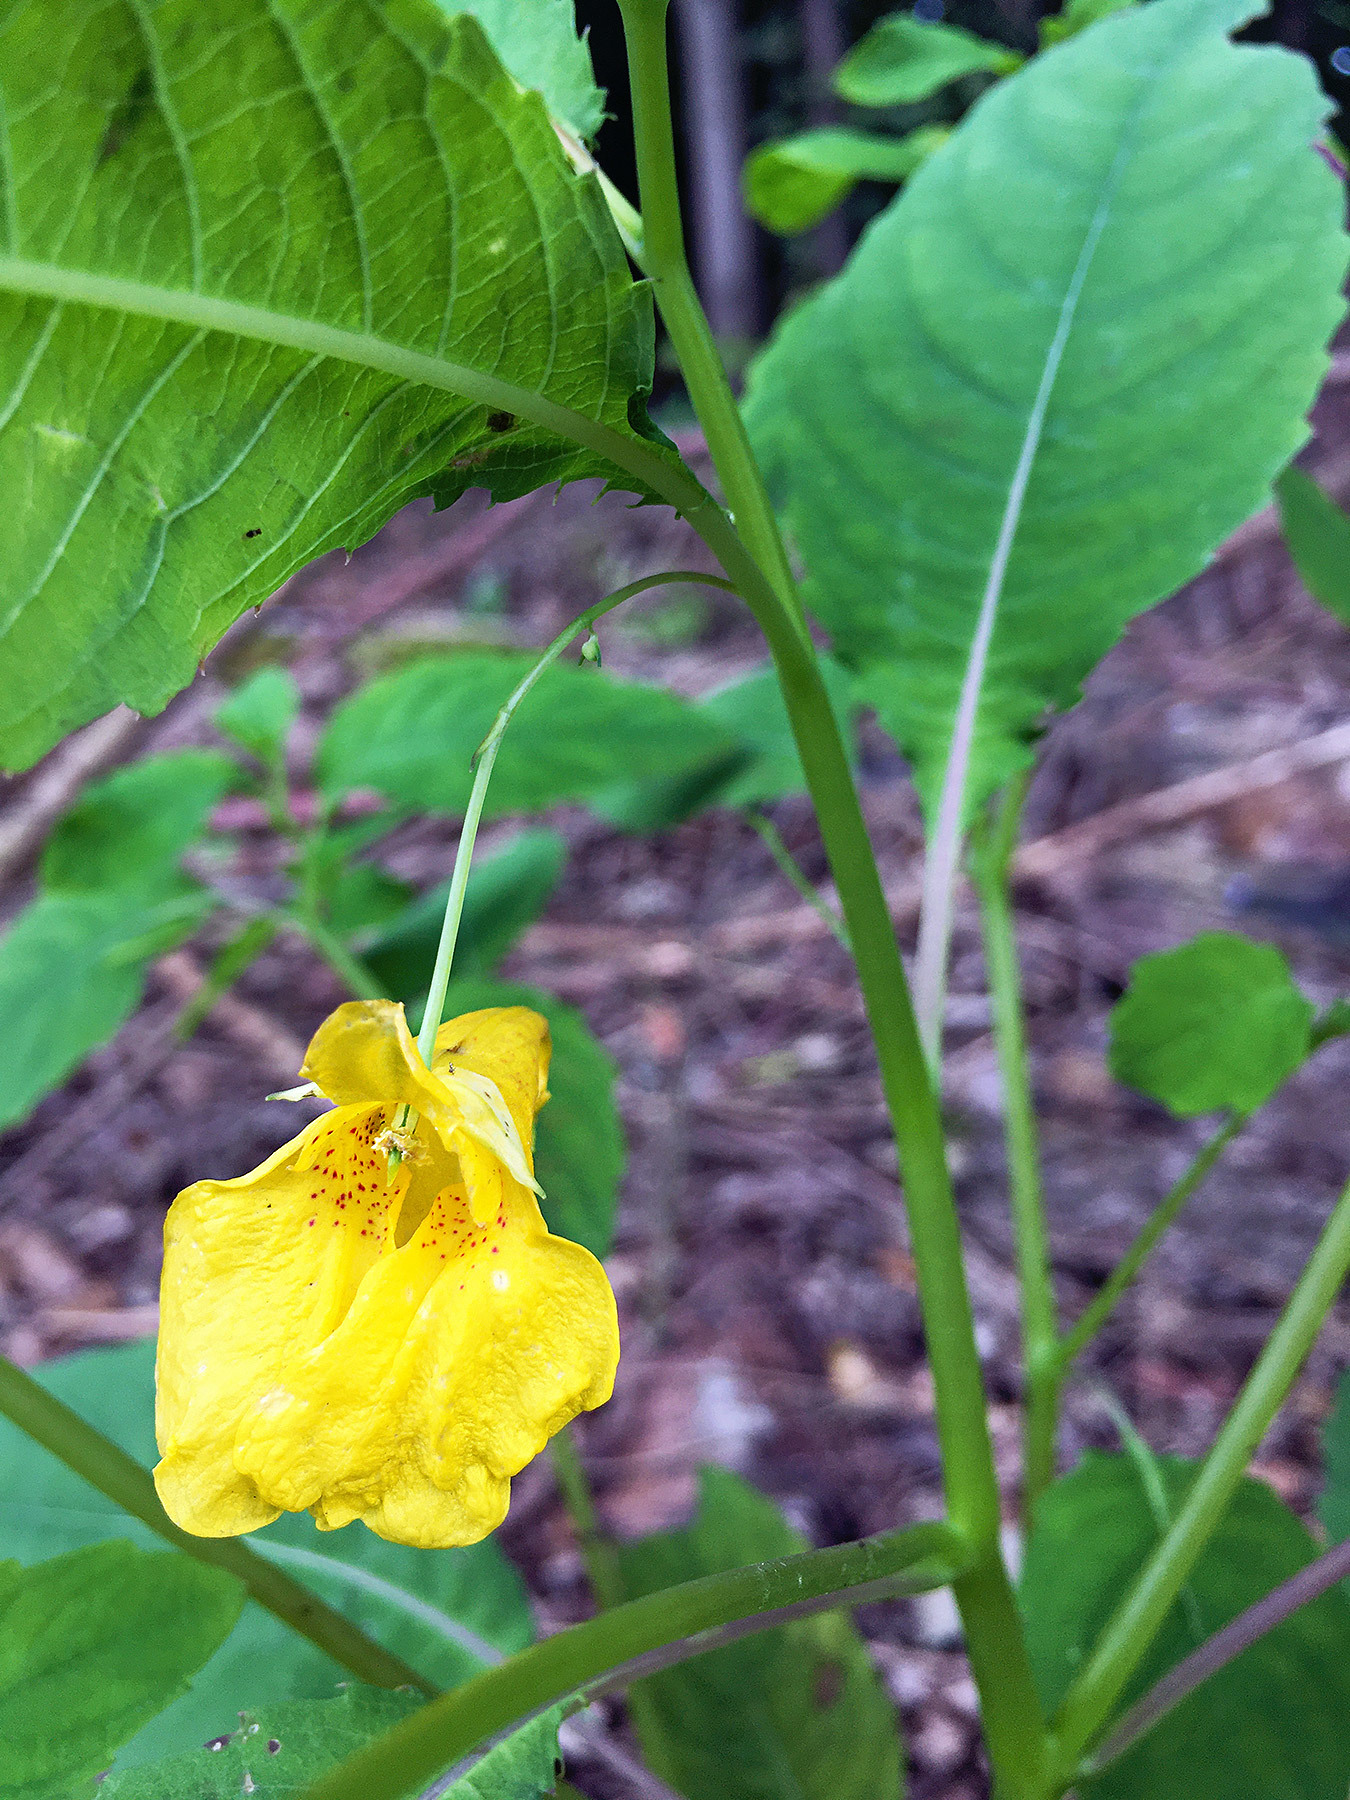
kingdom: Plantae
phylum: Tracheophyta
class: Magnoliopsida
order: Ericales
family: Balsaminaceae
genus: Impatiens
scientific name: Impatiens noli-tangere
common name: Touch-me-not balsam
